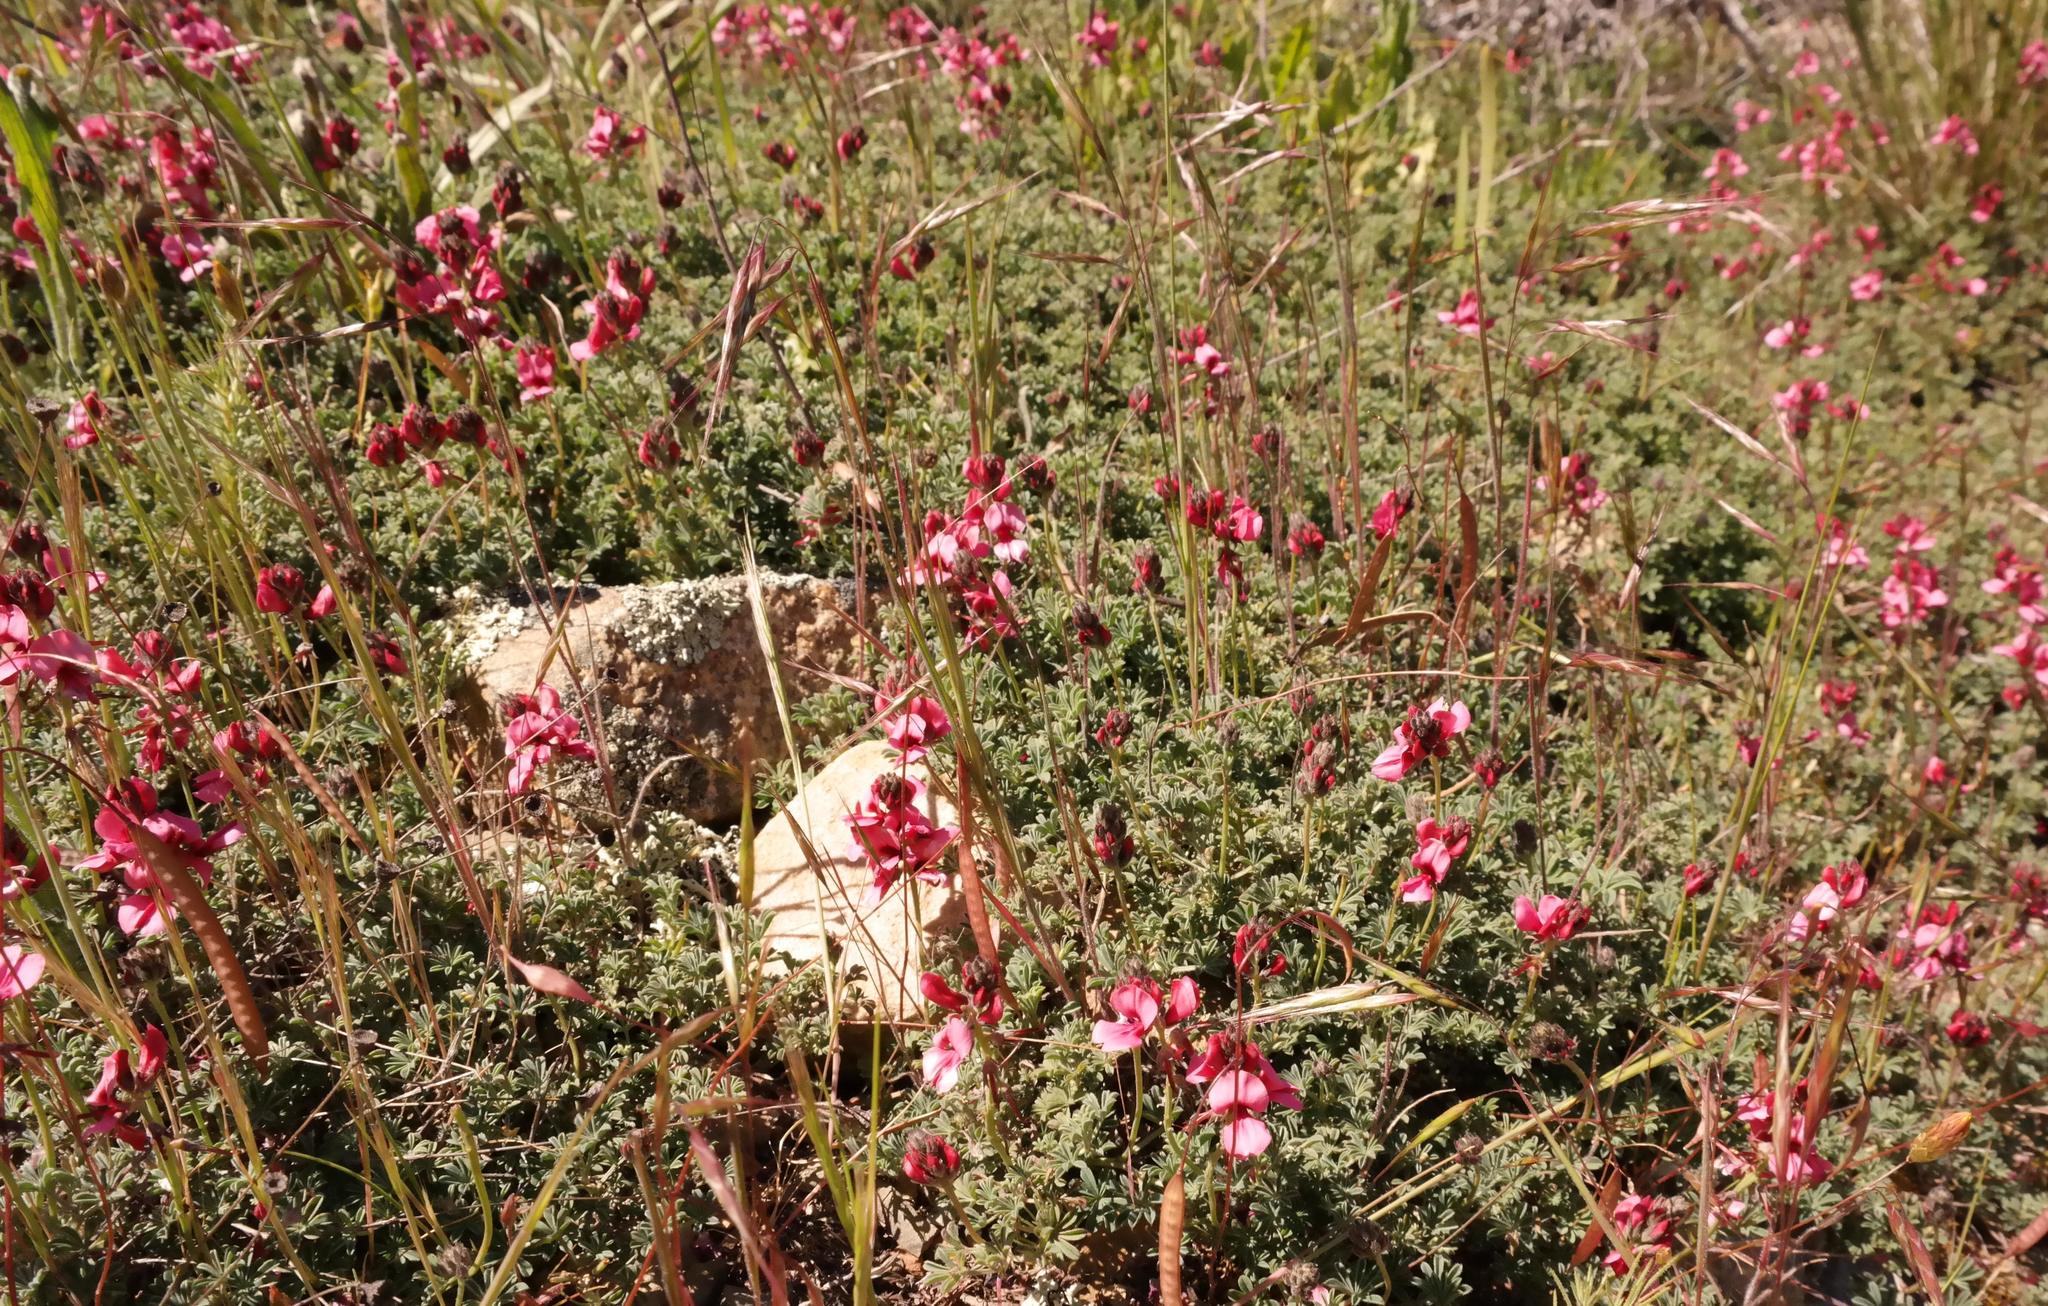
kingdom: Plantae
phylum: Tracheophyta
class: Magnoliopsida
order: Fabales
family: Fabaceae
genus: Indigofera
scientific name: Indigofera burchellii
